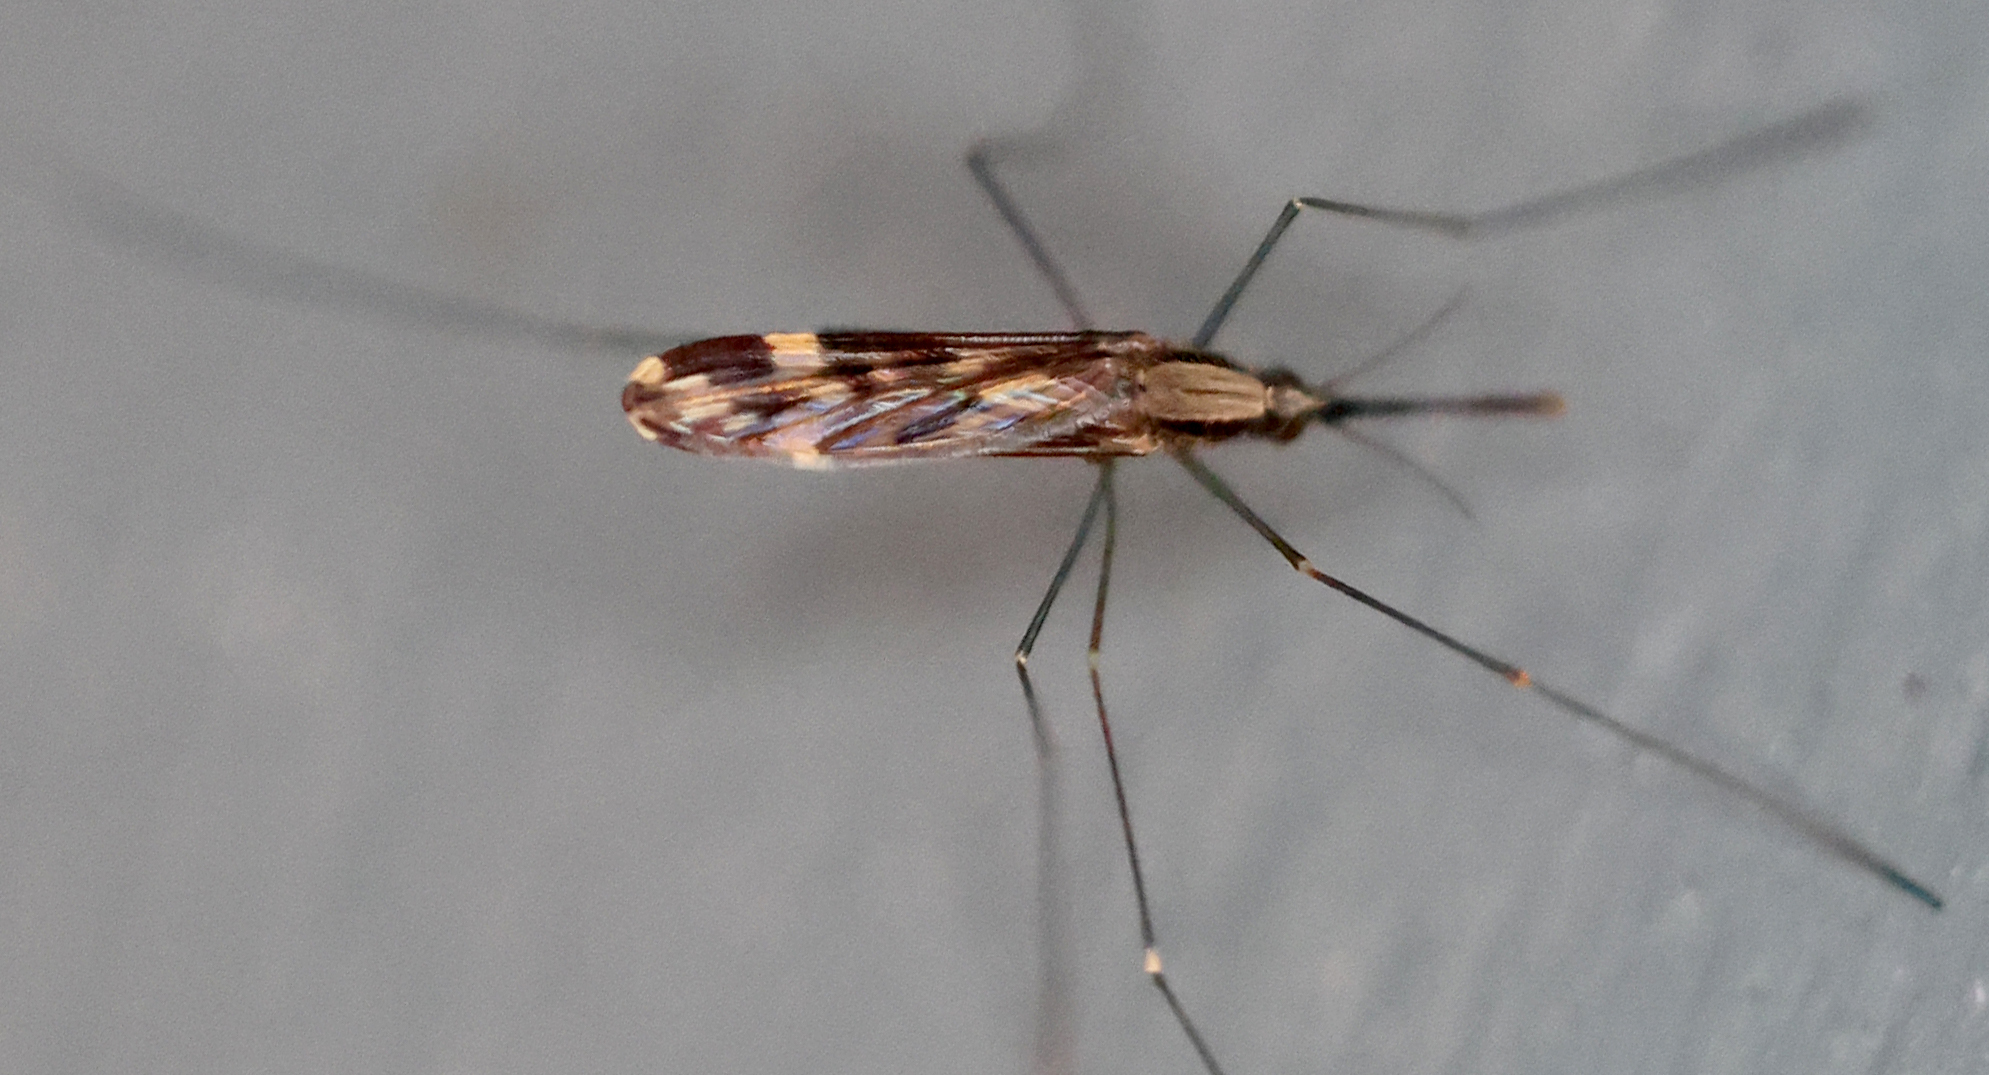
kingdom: Animalia
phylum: Arthropoda
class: Insecta
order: Diptera
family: Culicidae
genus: Anopheles
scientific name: Anopheles punctipennis
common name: Woodland malaria mosquito
